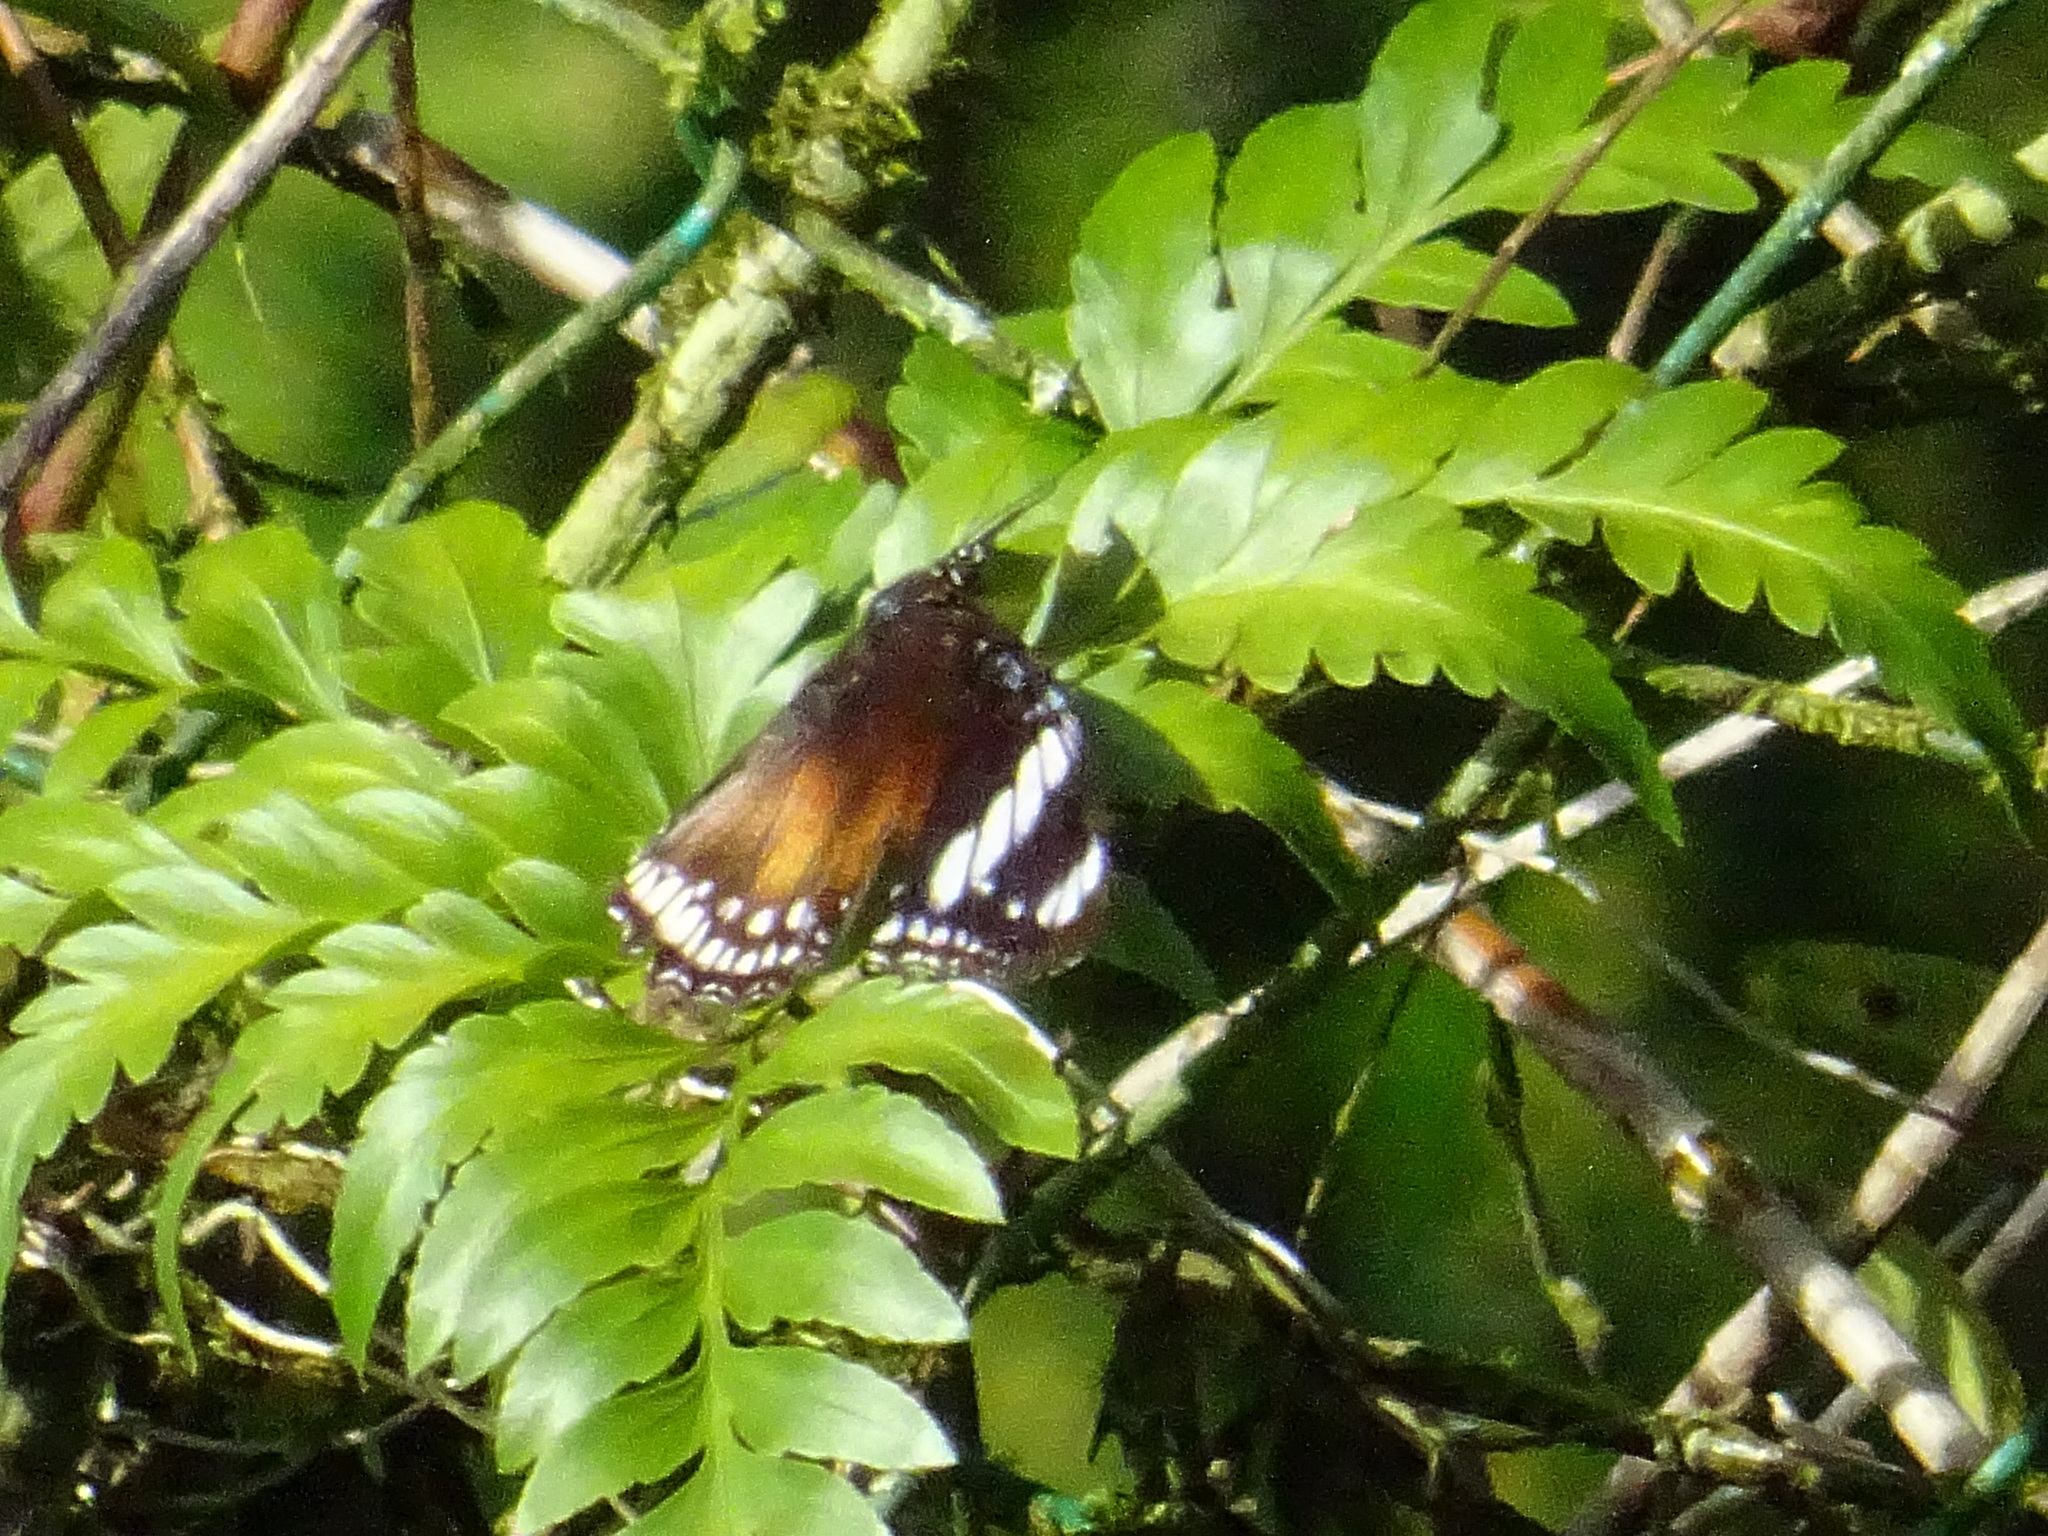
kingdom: Animalia
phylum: Arthropoda
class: Insecta
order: Lepidoptera
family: Nymphalidae
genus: Hypolimnas
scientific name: Hypolimnas bolina
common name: Great eggfly
